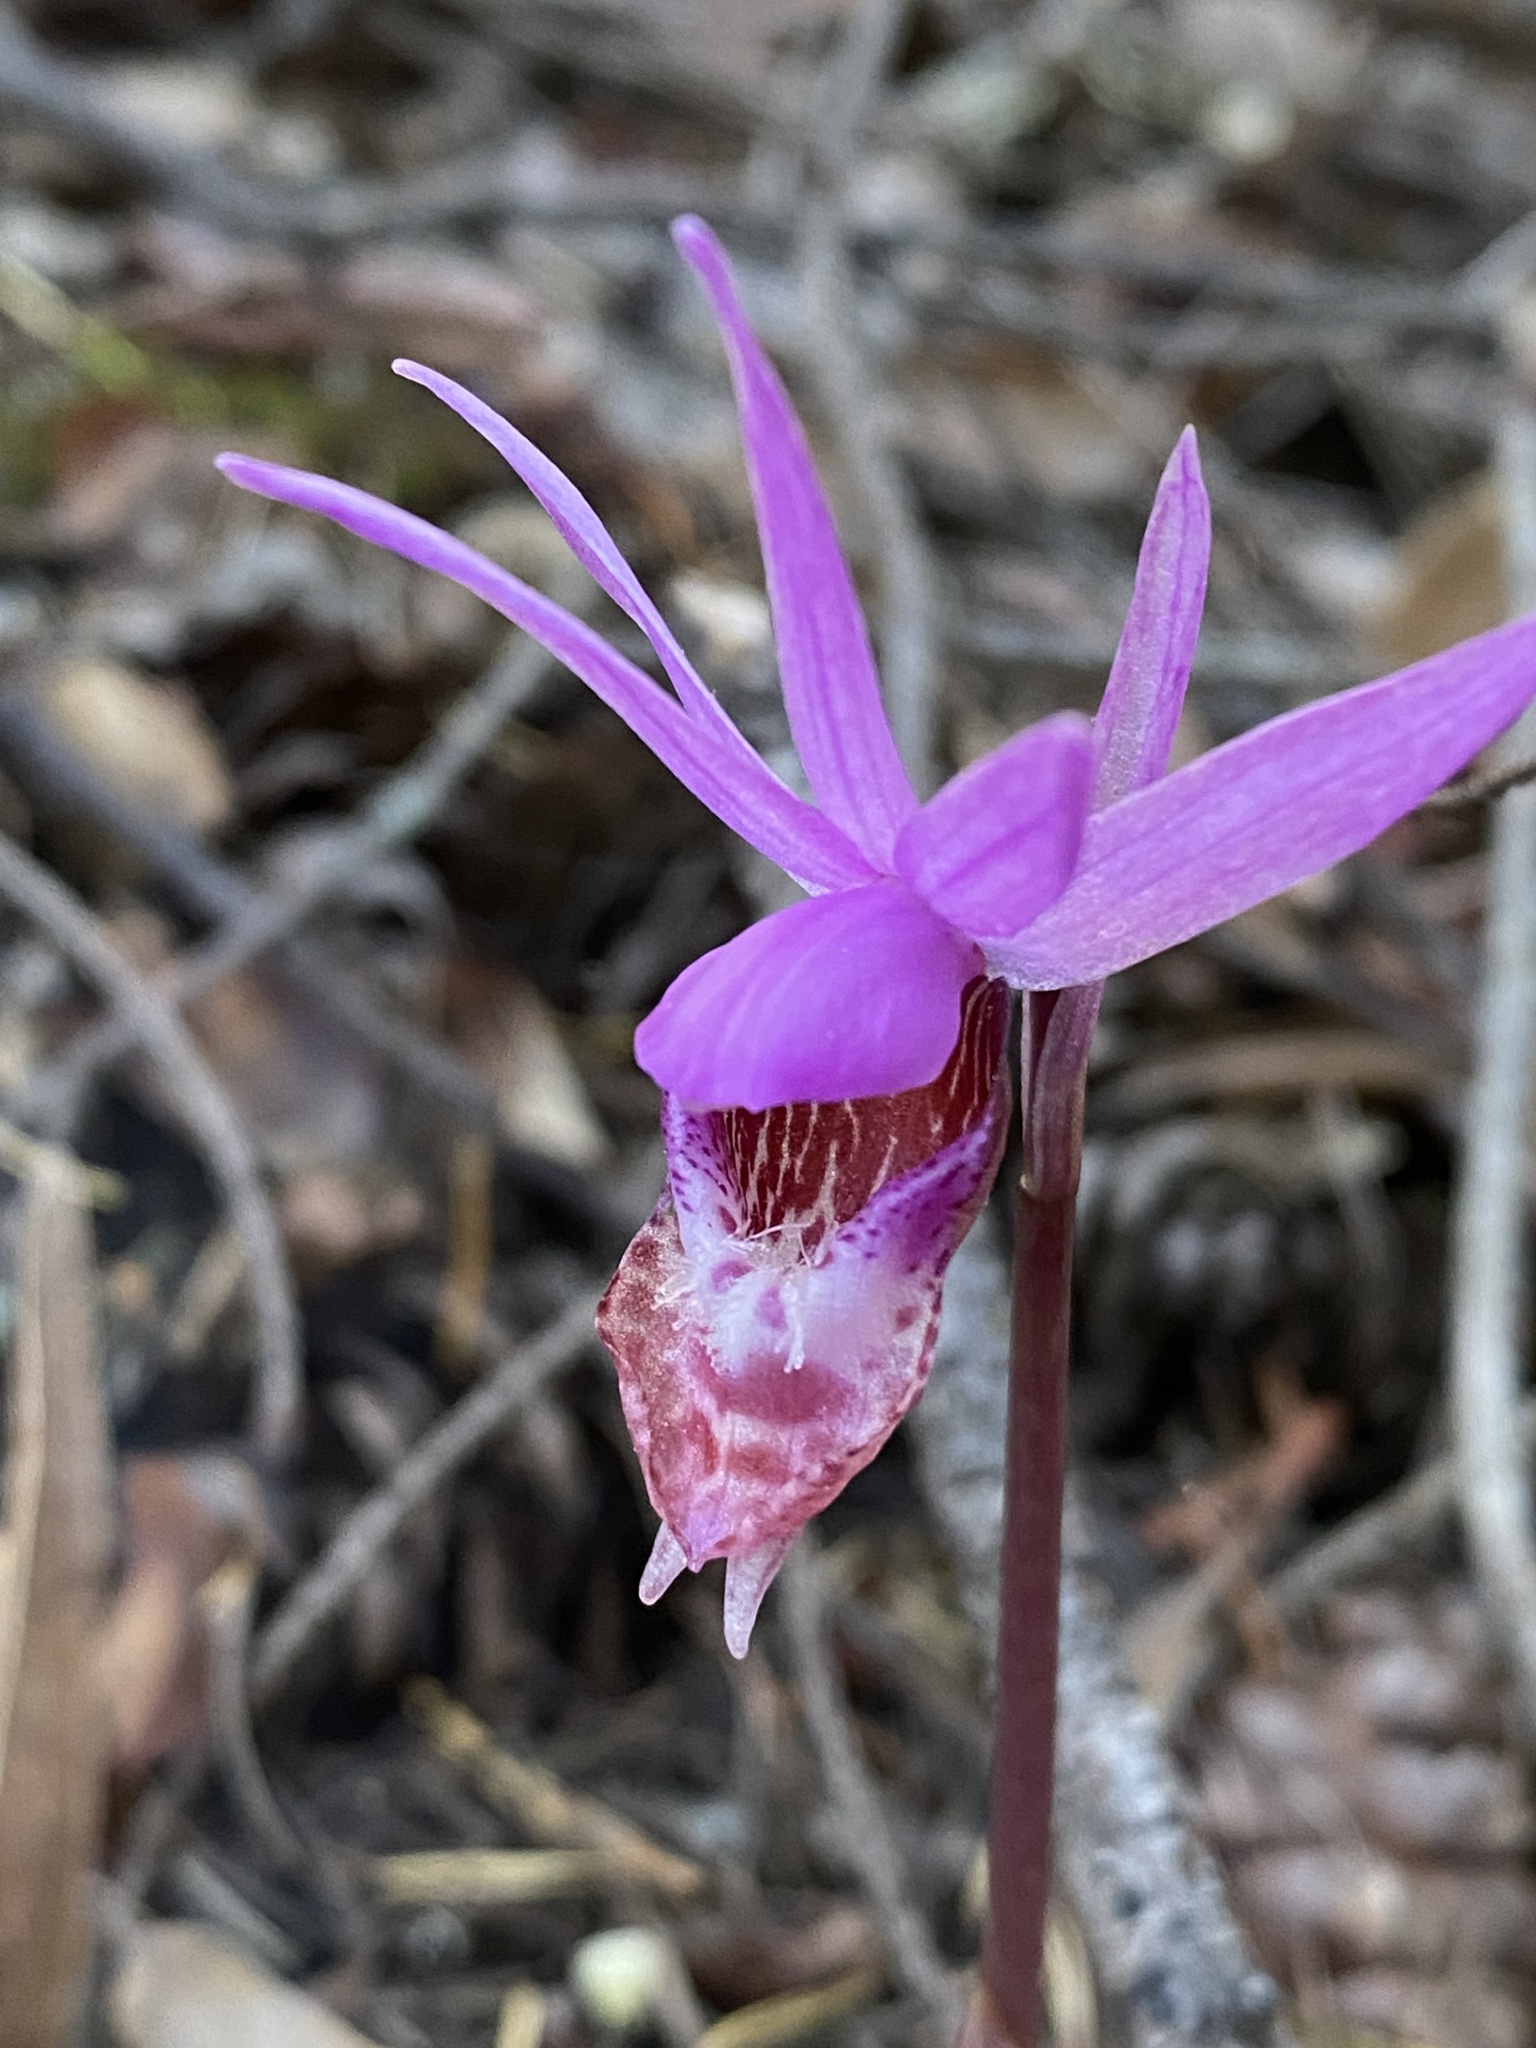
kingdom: Plantae
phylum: Tracheophyta
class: Liliopsida
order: Asparagales
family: Orchidaceae
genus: Calypso
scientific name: Calypso bulbosa
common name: Calypso
